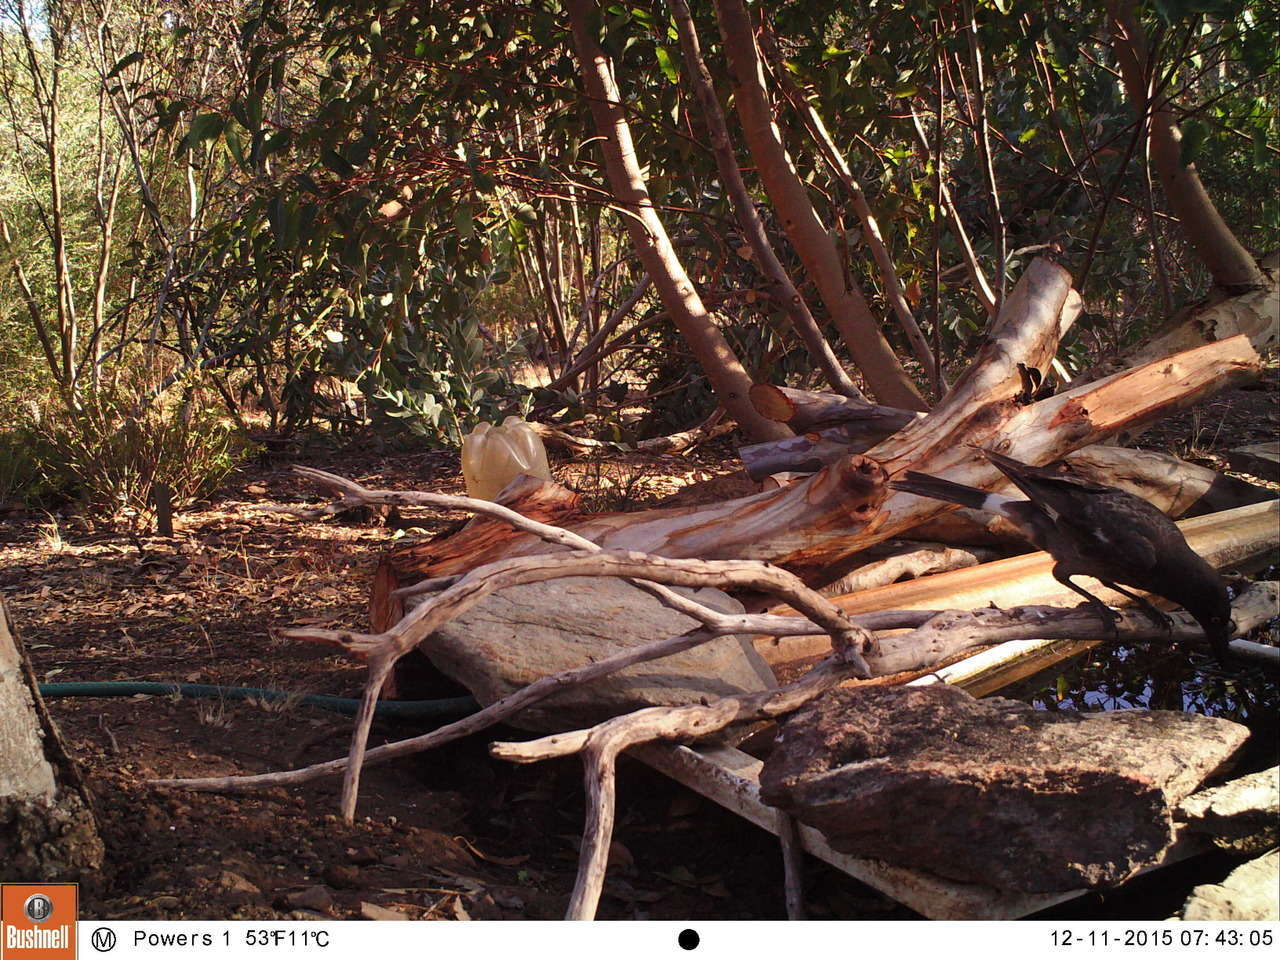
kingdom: Animalia
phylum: Chordata
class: Aves
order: Passeriformes
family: Cracticidae
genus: Strepera
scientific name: Strepera graculina
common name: Pied currawong
